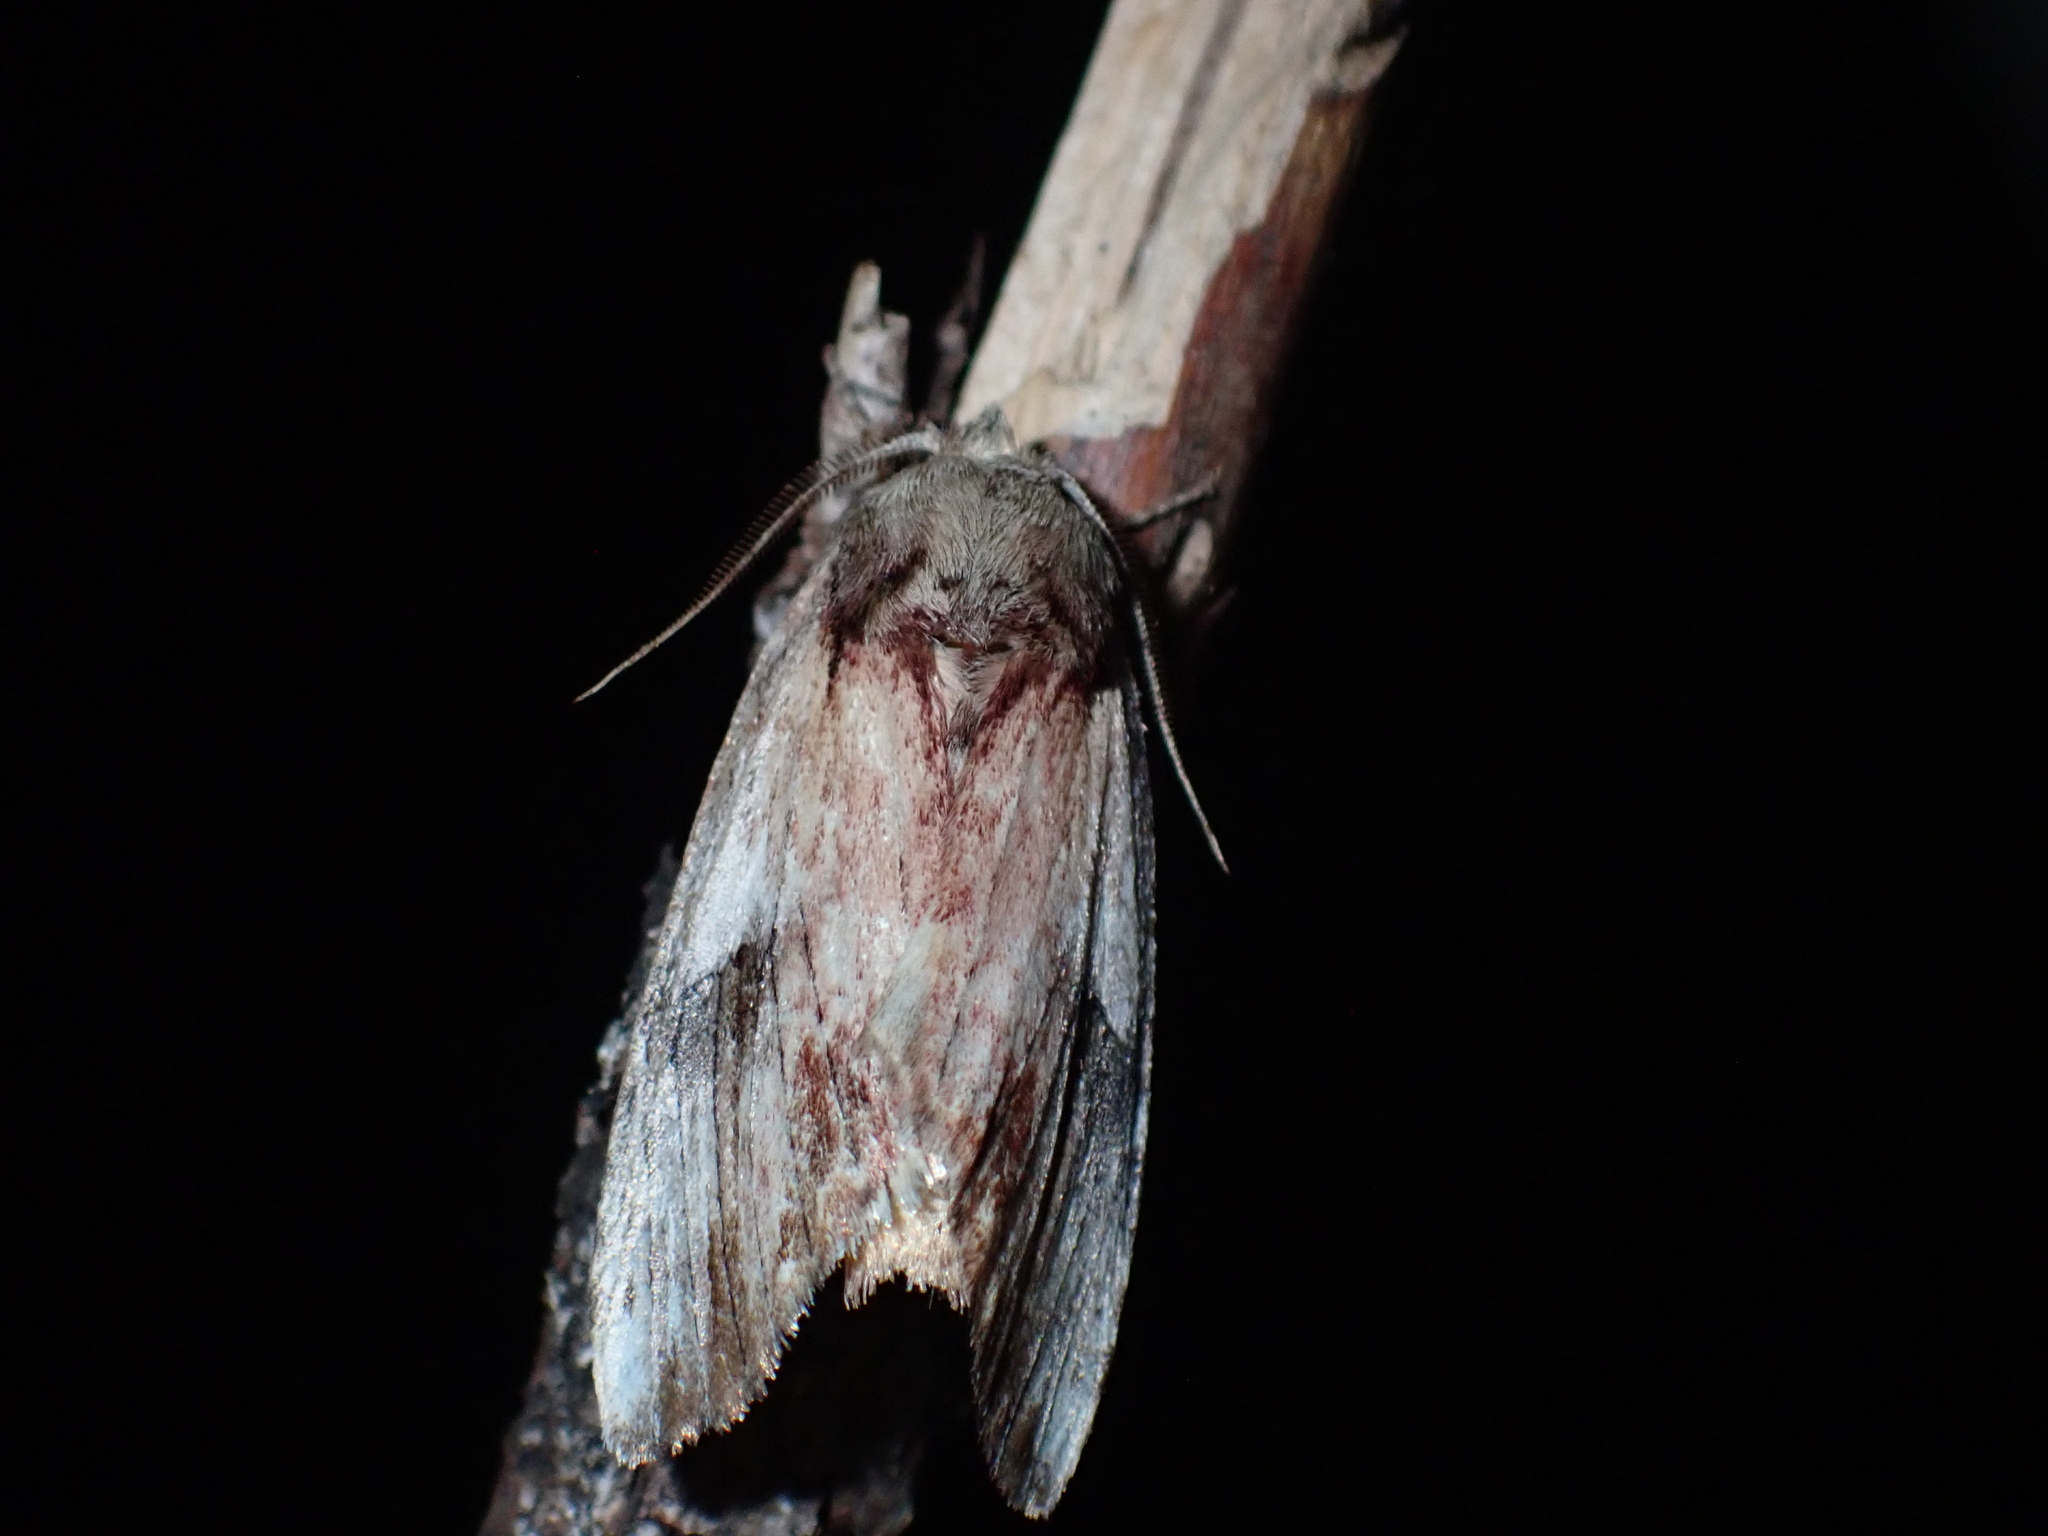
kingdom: Animalia
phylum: Arthropoda
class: Insecta
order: Lepidoptera
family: Notodontidae
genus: Schizura
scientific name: Schizura
